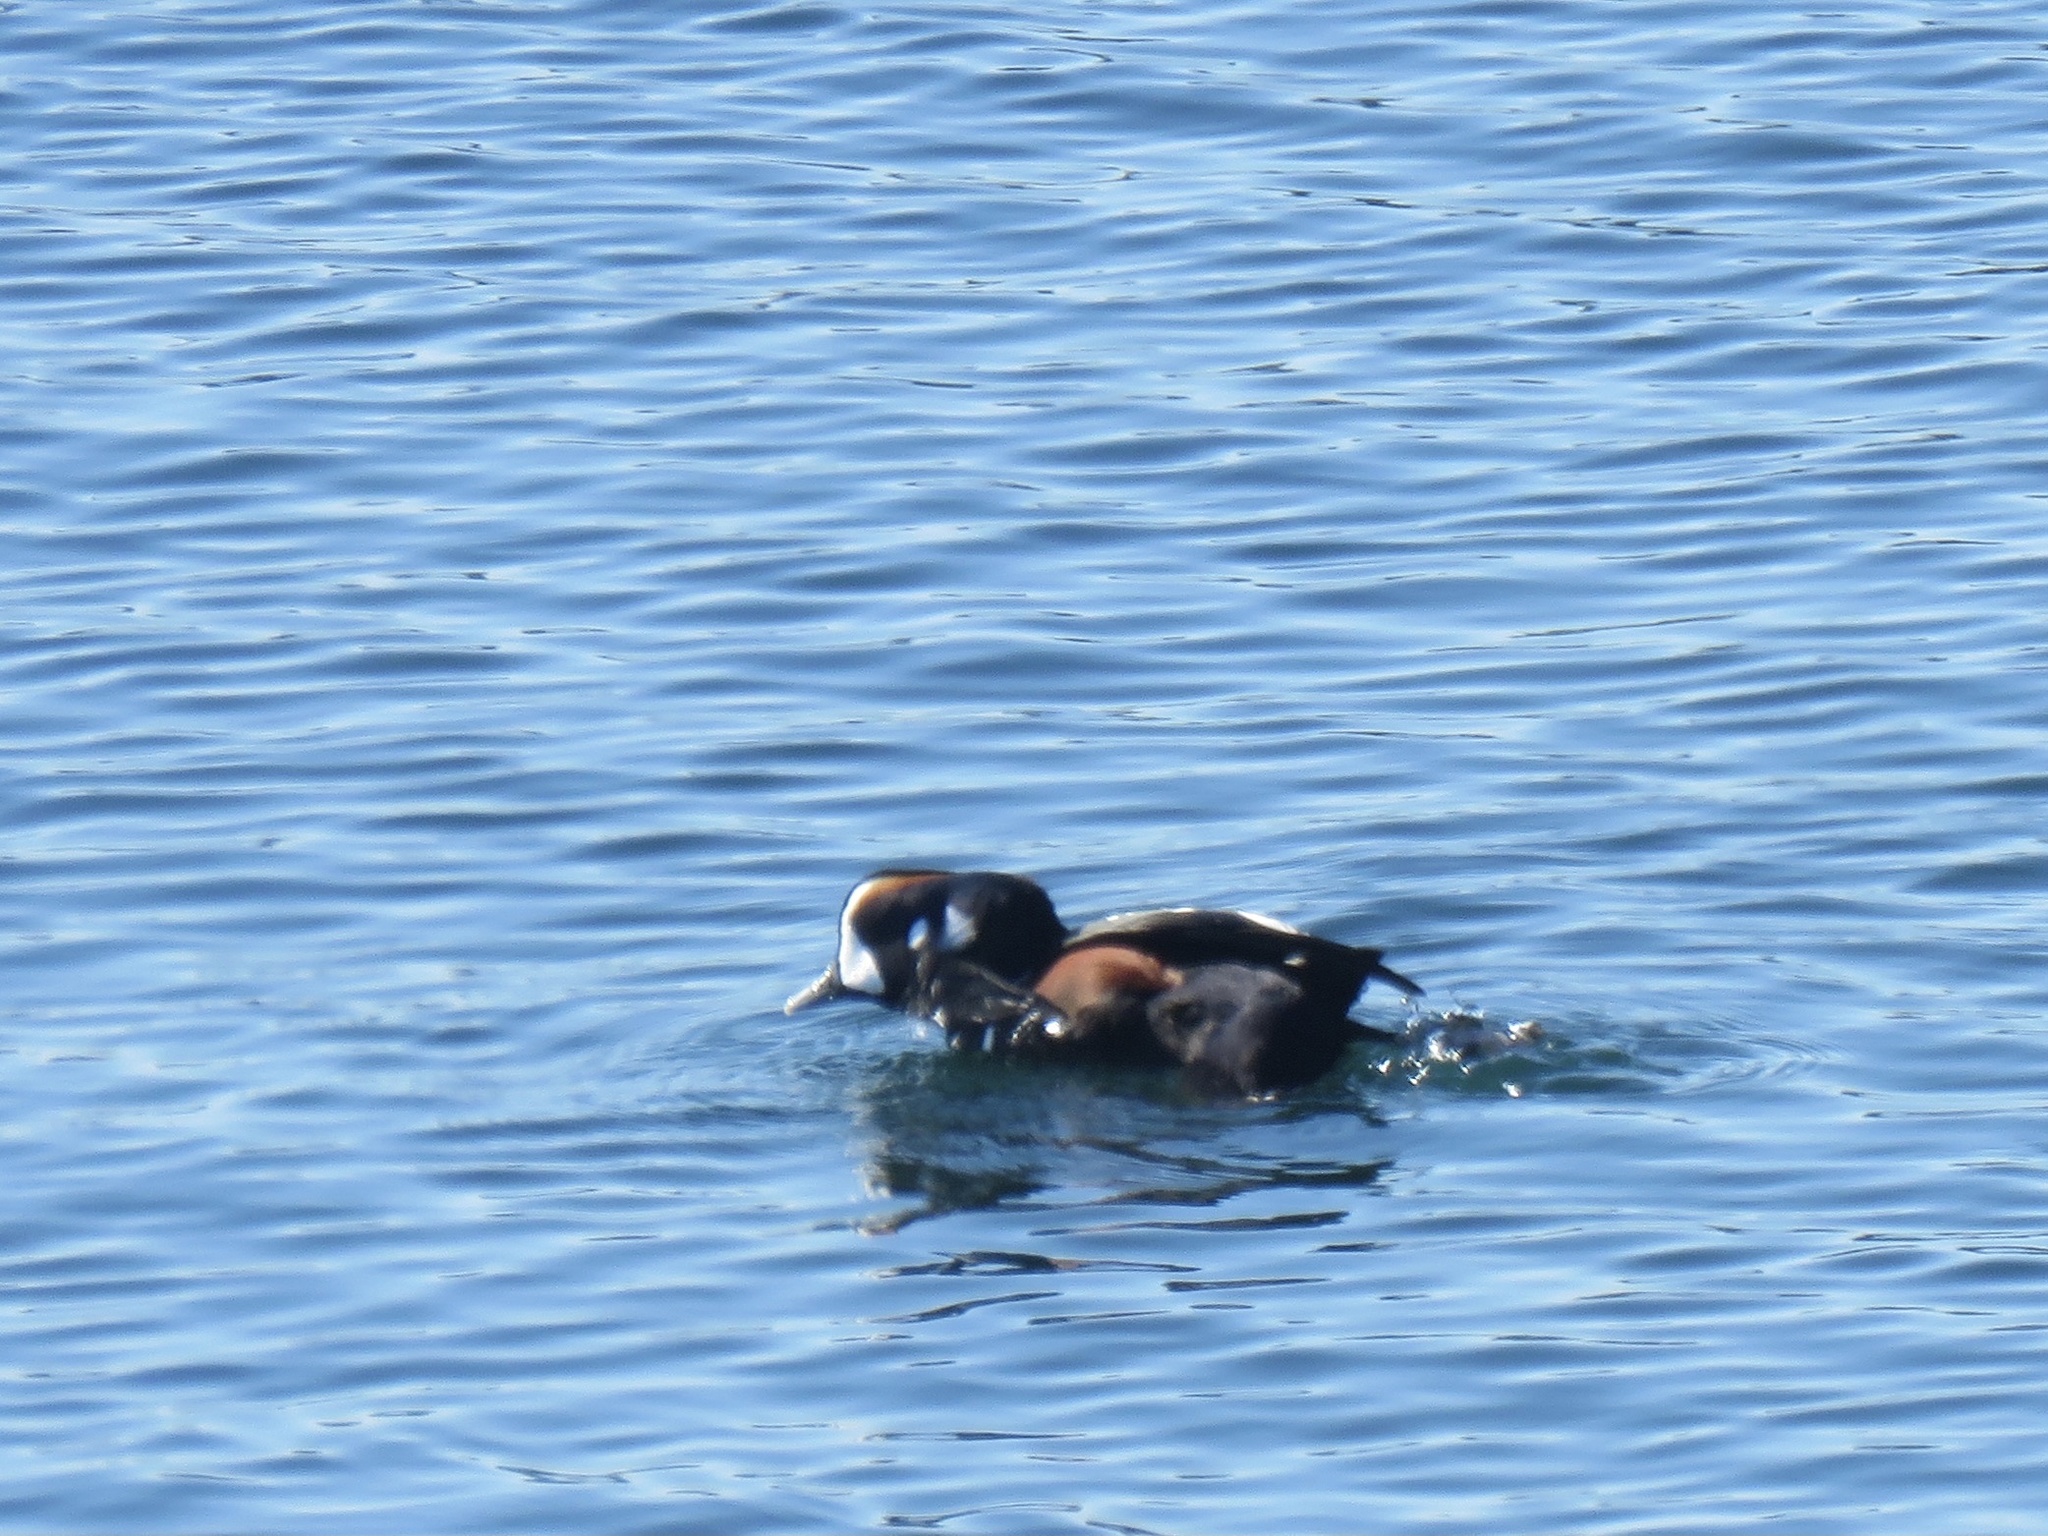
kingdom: Animalia
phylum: Chordata
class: Aves
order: Anseriformes
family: Anatidae
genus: Histrionicus
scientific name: Histrionicus histrionicus
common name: Harlequin duck
